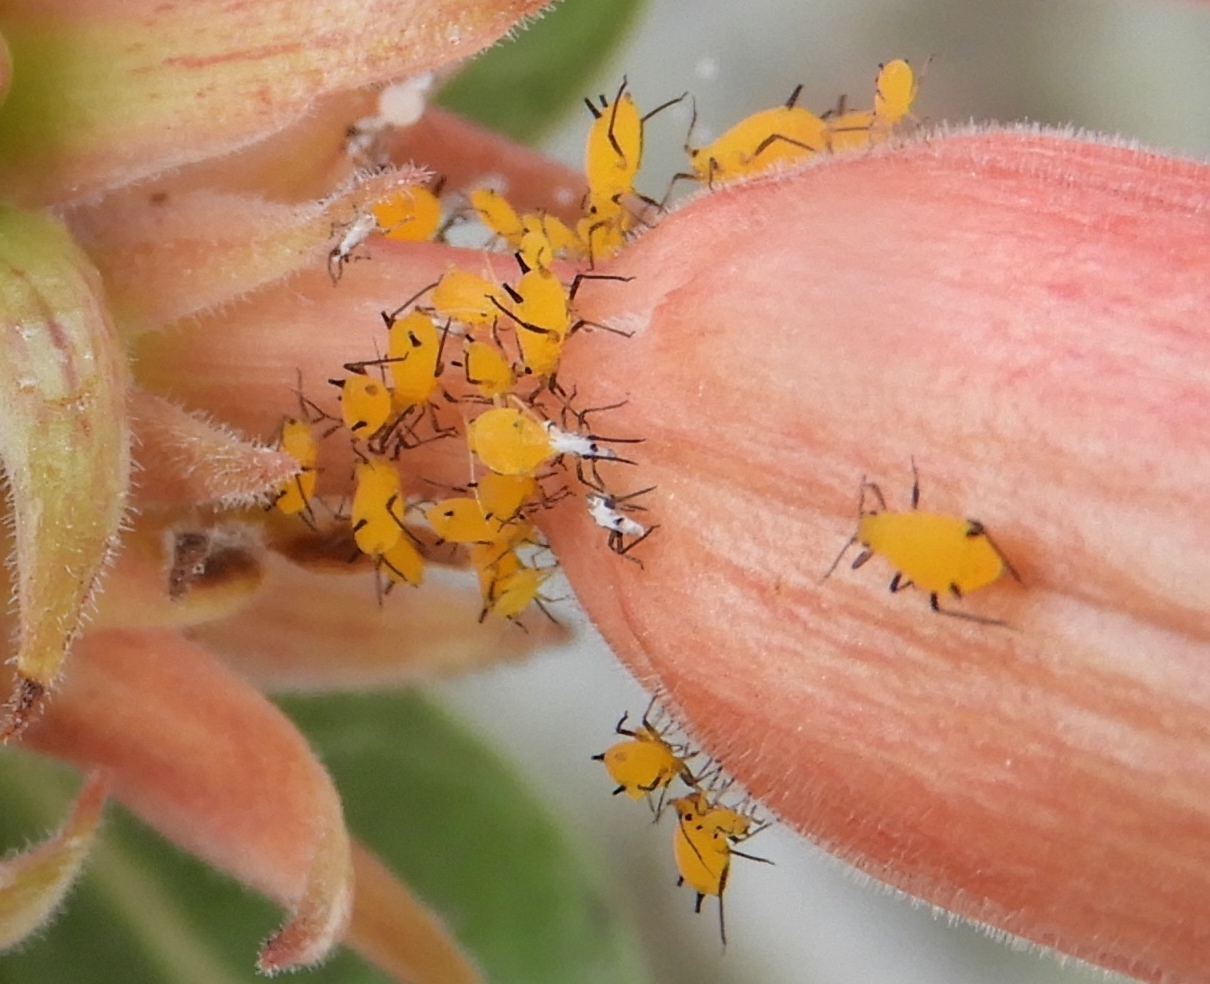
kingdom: Animalia
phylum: Arthropoda
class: Insecta
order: Hemiptera
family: Aphididae
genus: Aphis
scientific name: Aphis nerii
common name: Oleander aphid
